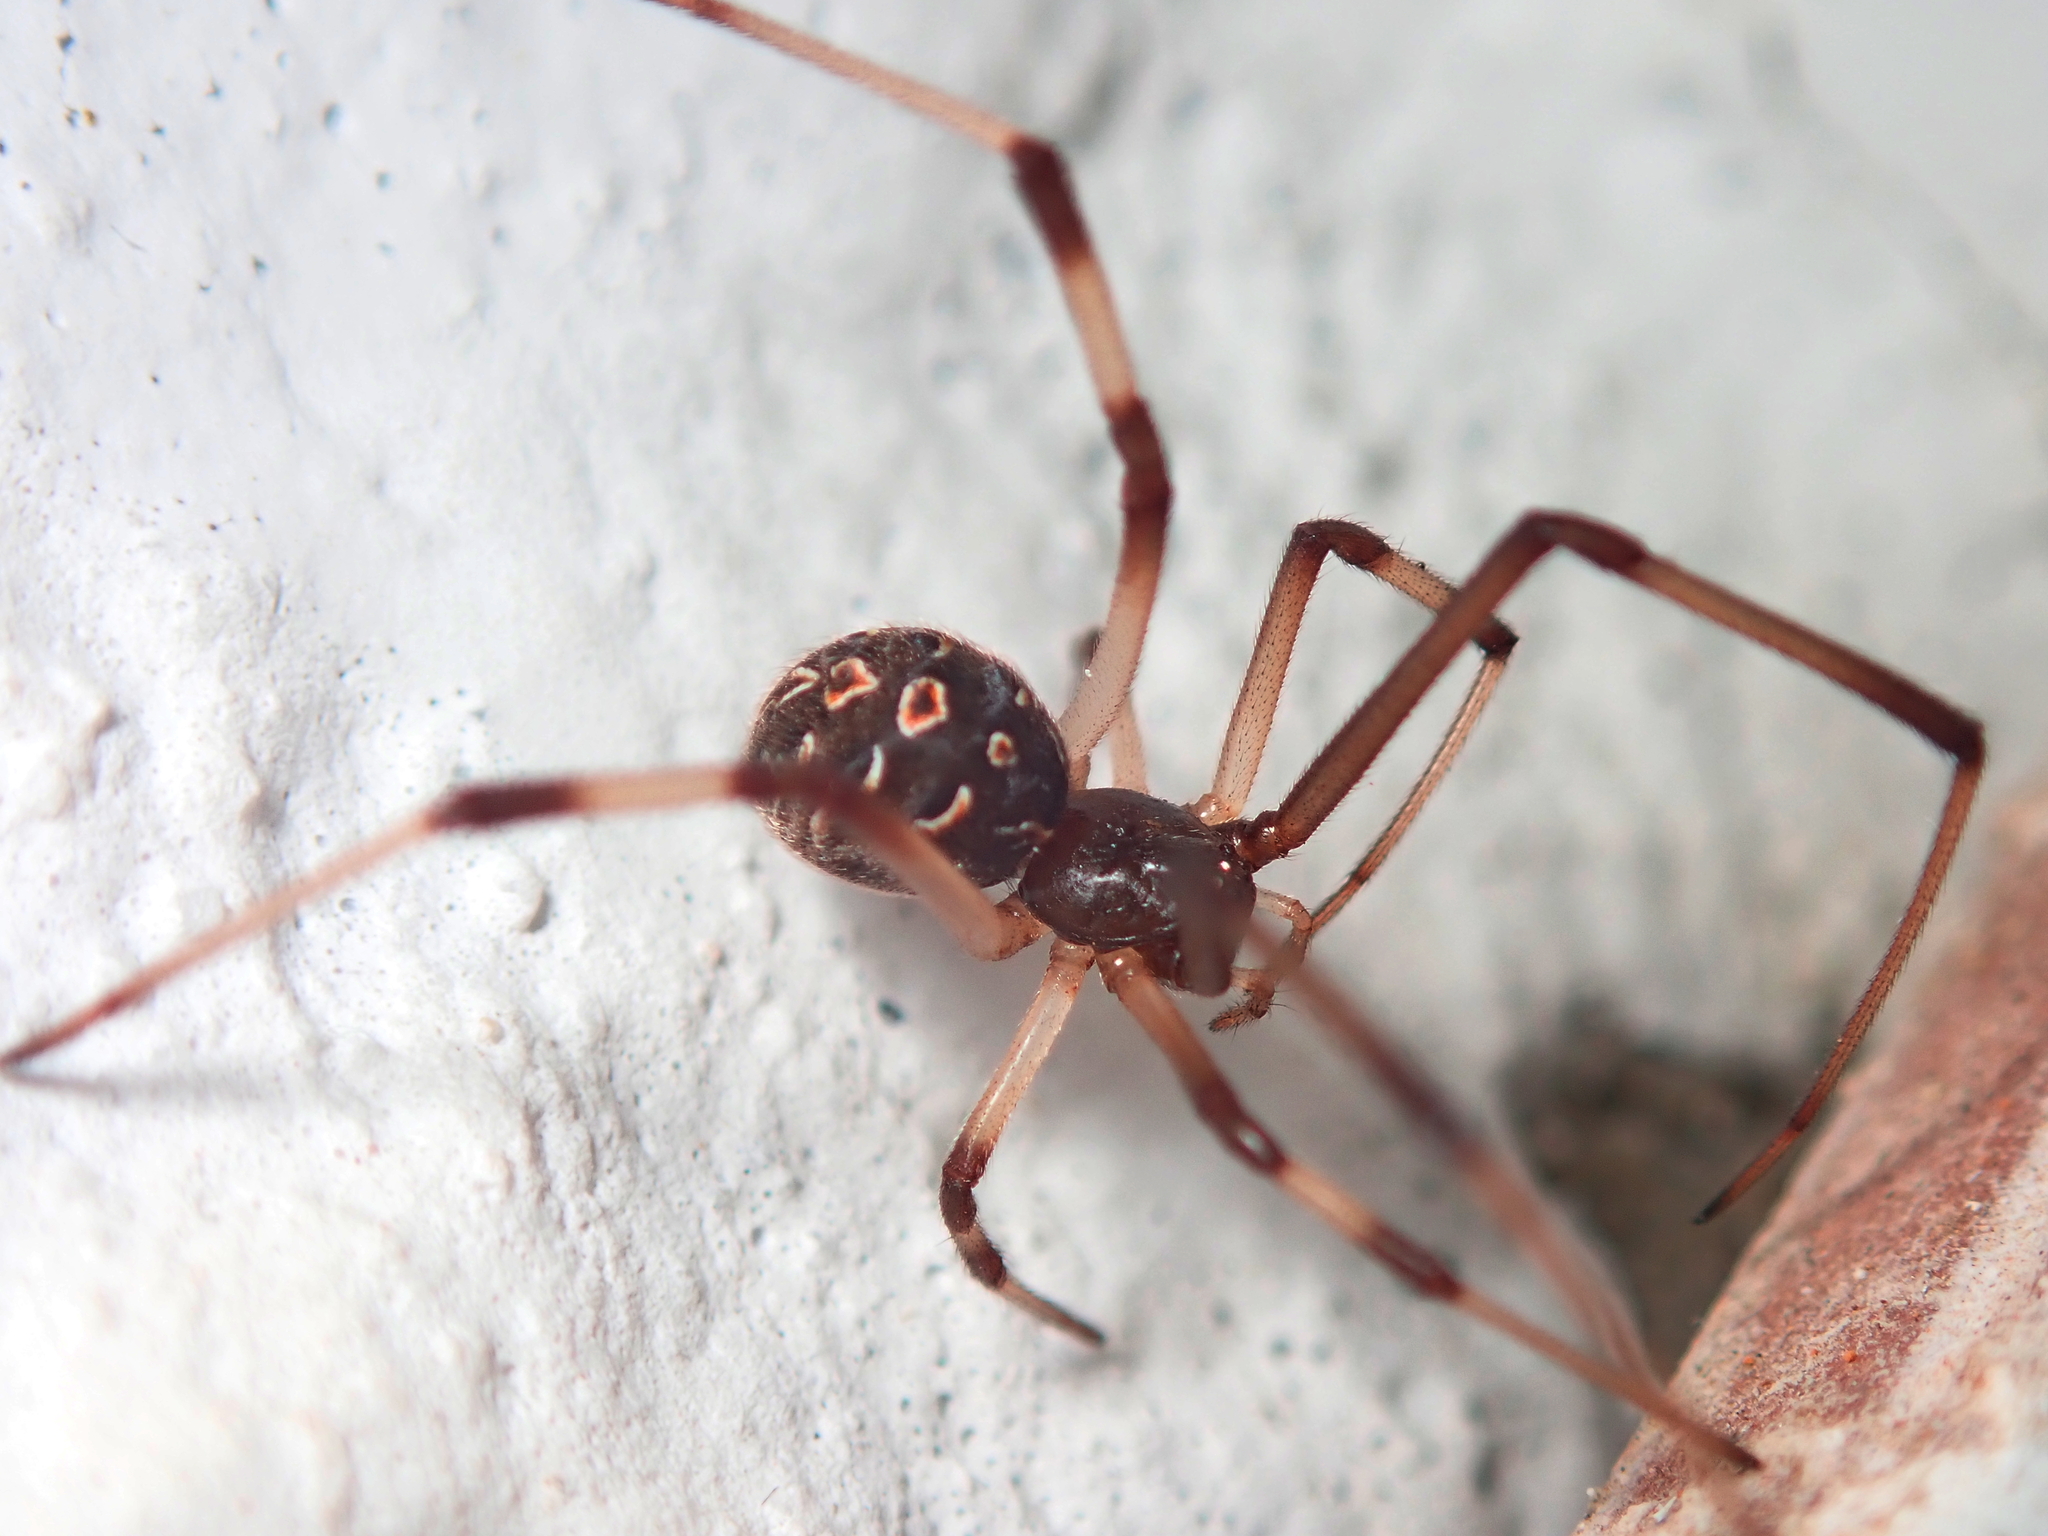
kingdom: Animalia
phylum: Arthropoda
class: Arachnida
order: Araneae
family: Theridiidae
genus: Latrodectus
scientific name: Latrodectus geometricus
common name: Brown widow spider
